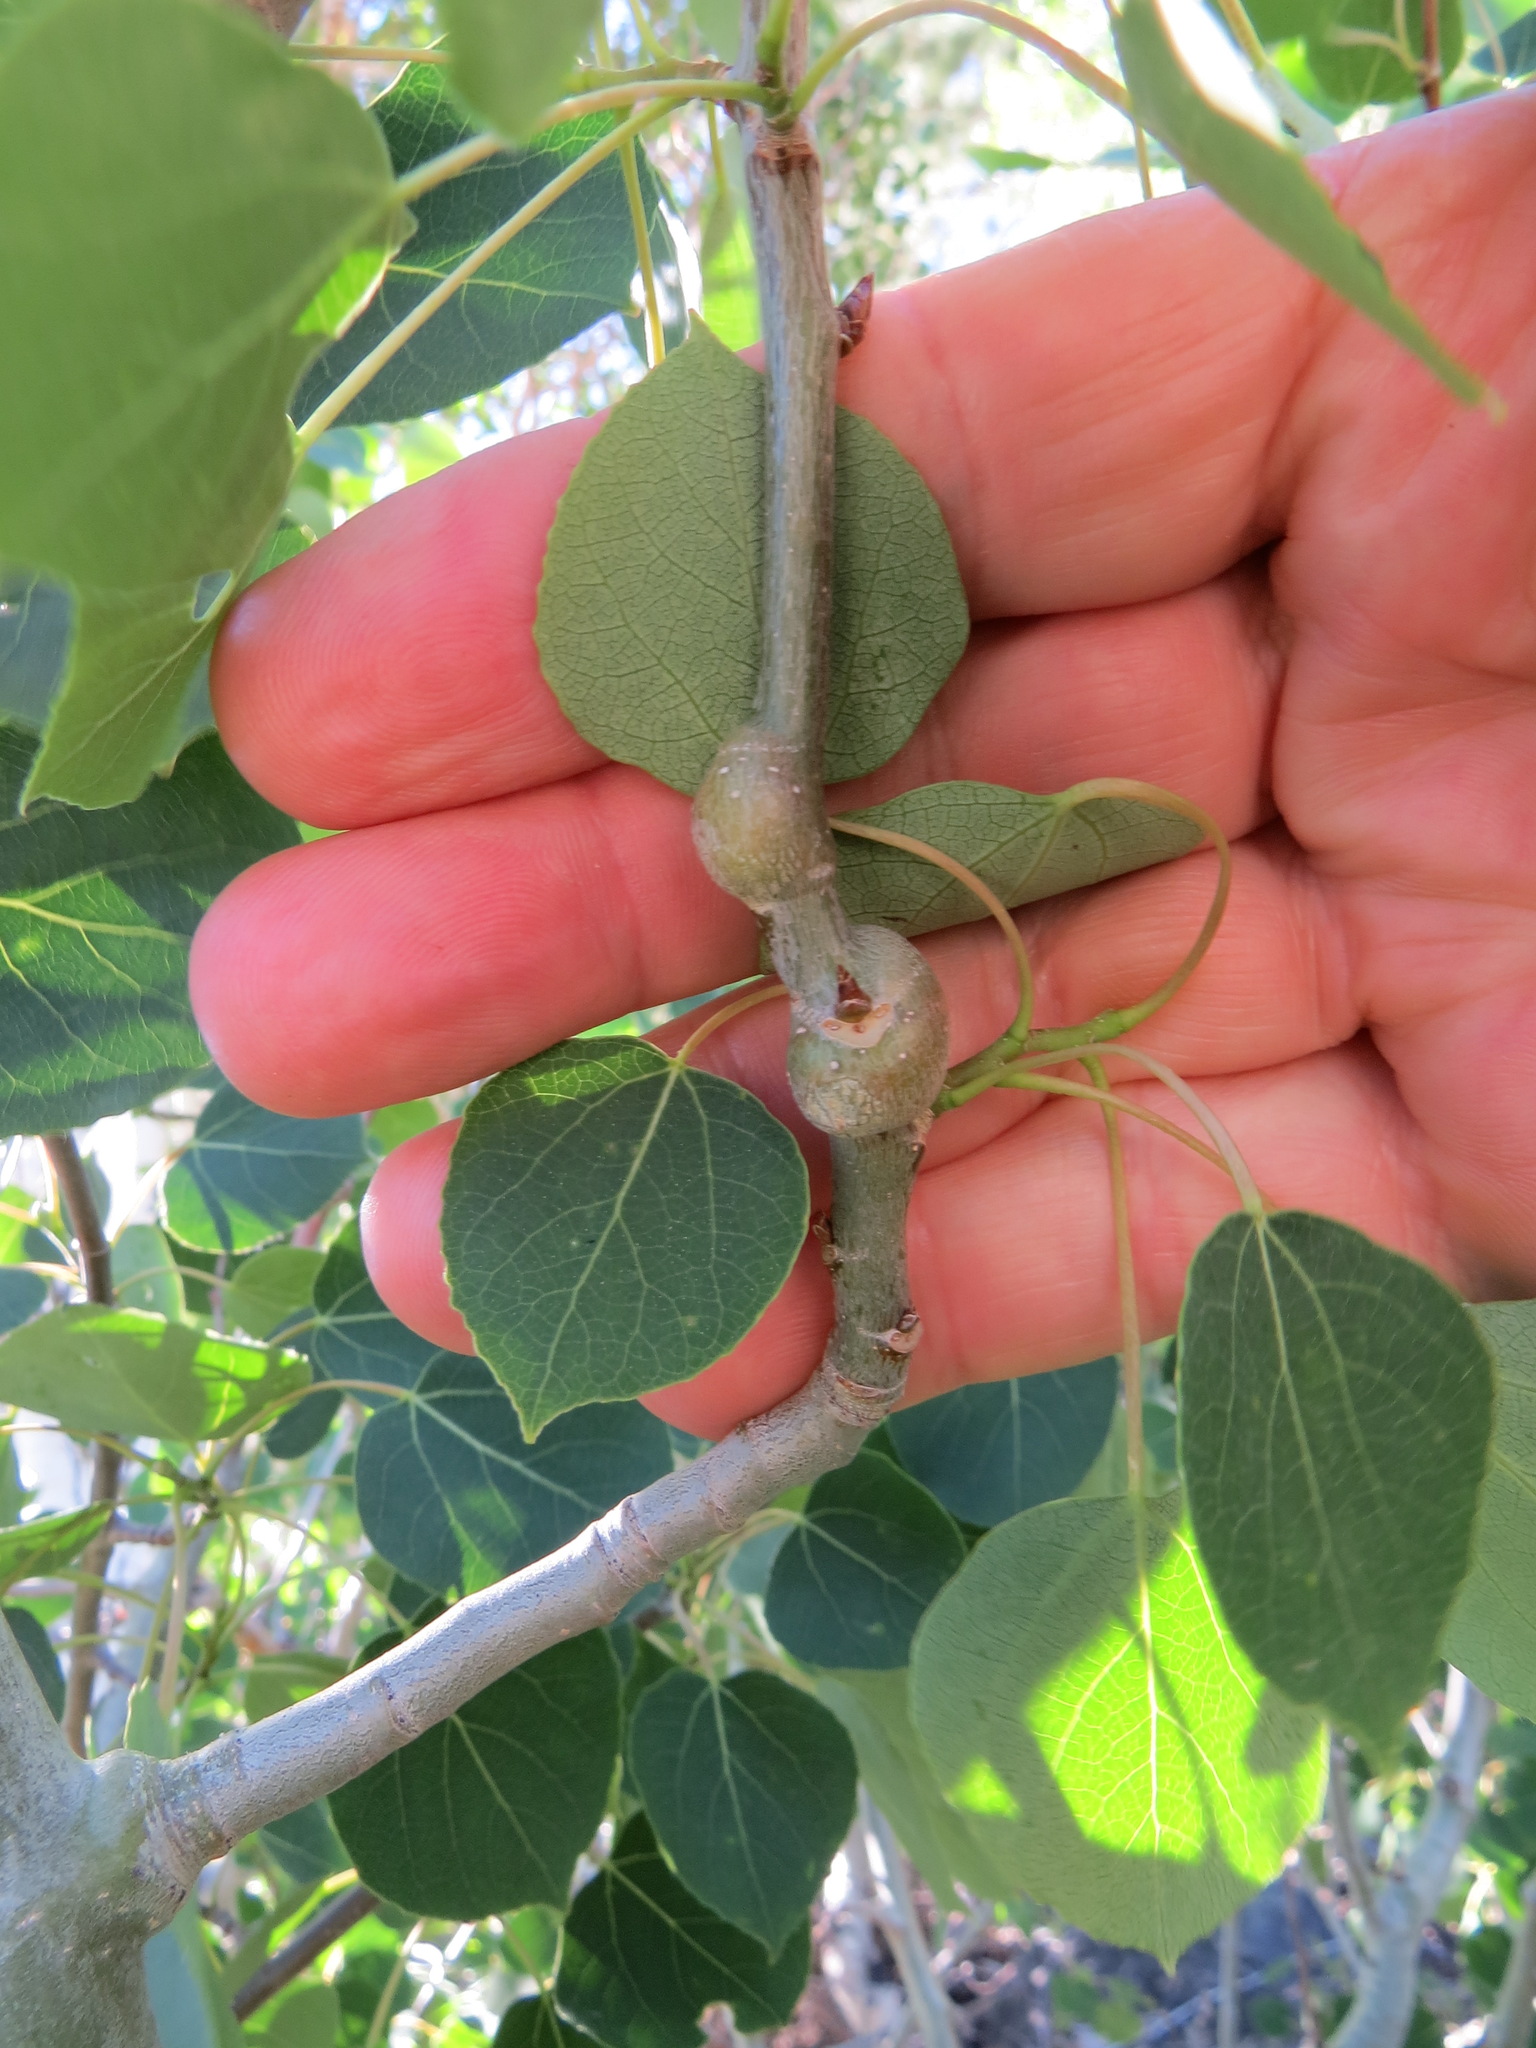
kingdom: Animalia
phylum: Arthropoda
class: Insecta
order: Diptera
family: Agromyzidae
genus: Euhexomyza
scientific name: Euhexomyza schineri
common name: Poplar twiggall fly
